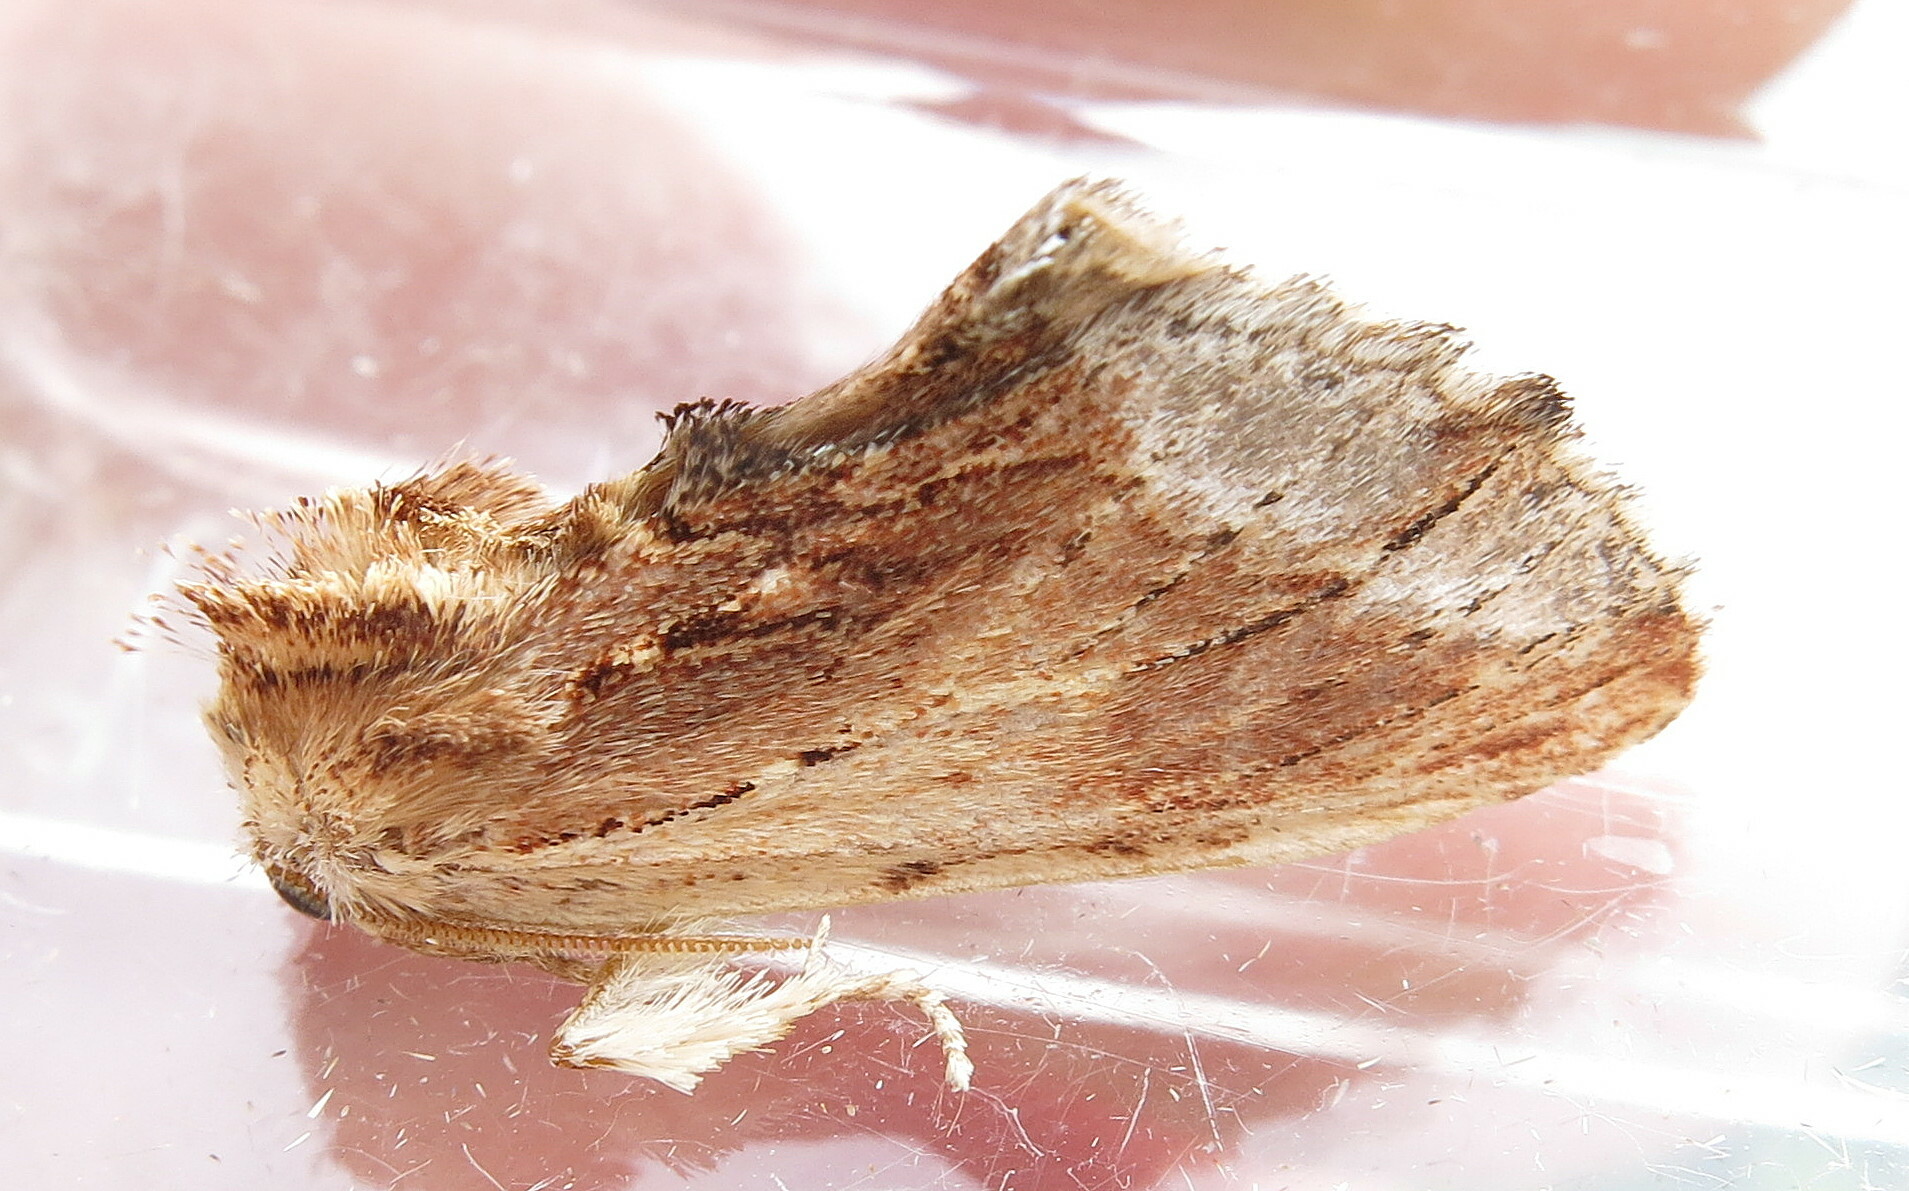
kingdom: Animalia
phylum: Arthropoda
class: Insecta
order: Lepidoptera
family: Notodontidae
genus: Ptilodon
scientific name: Ptilodon cucullina
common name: Maple prominent
